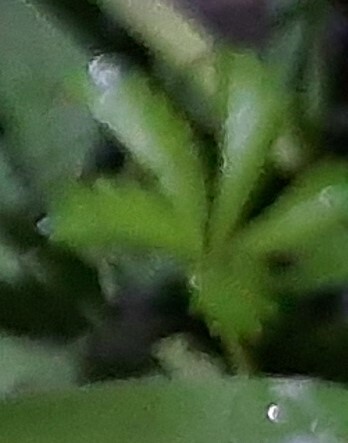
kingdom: Plantae
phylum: Tracheophyta
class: Magnoliopsida
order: Rosales
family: Rosaceae
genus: Potentilla
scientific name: Potentilla reptans
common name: Creeping cinquefoil
